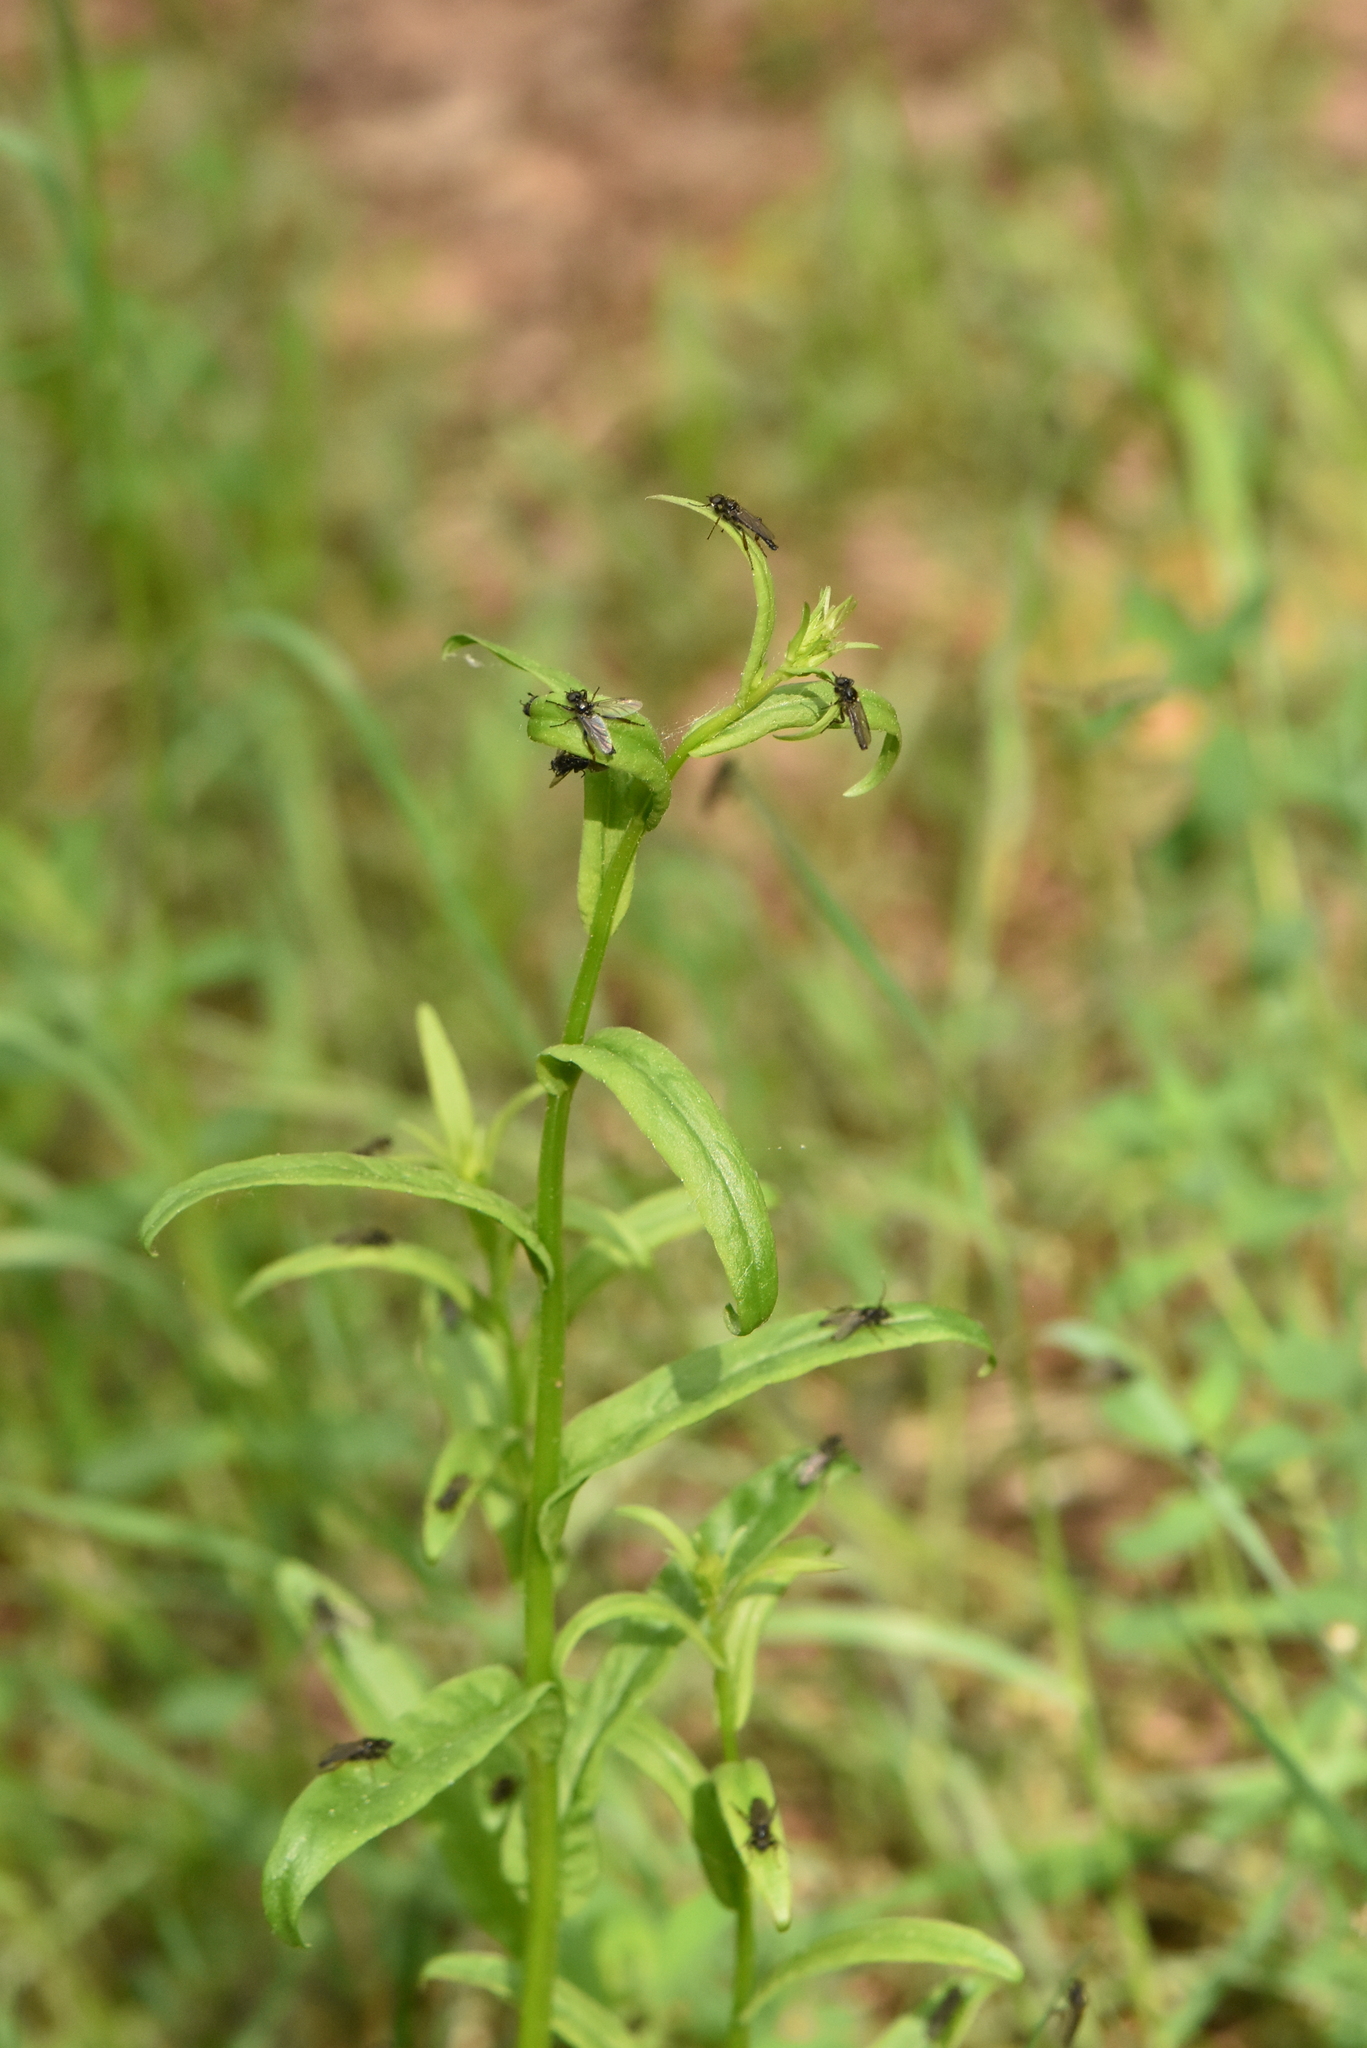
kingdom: Plantae
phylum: Tracheophyta
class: Magnoliopsida
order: Asterales
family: Campanulaceae
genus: Campanula
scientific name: Campanula persicifolia
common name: Peach-leaved bellflower
